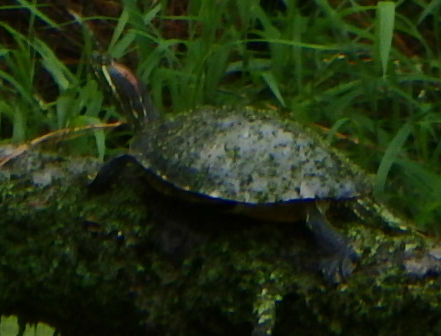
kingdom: Animalia
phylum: Chordata
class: Testudines
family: Emydidae
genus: Trachemys
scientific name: Trachemys scripta
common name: Slider
